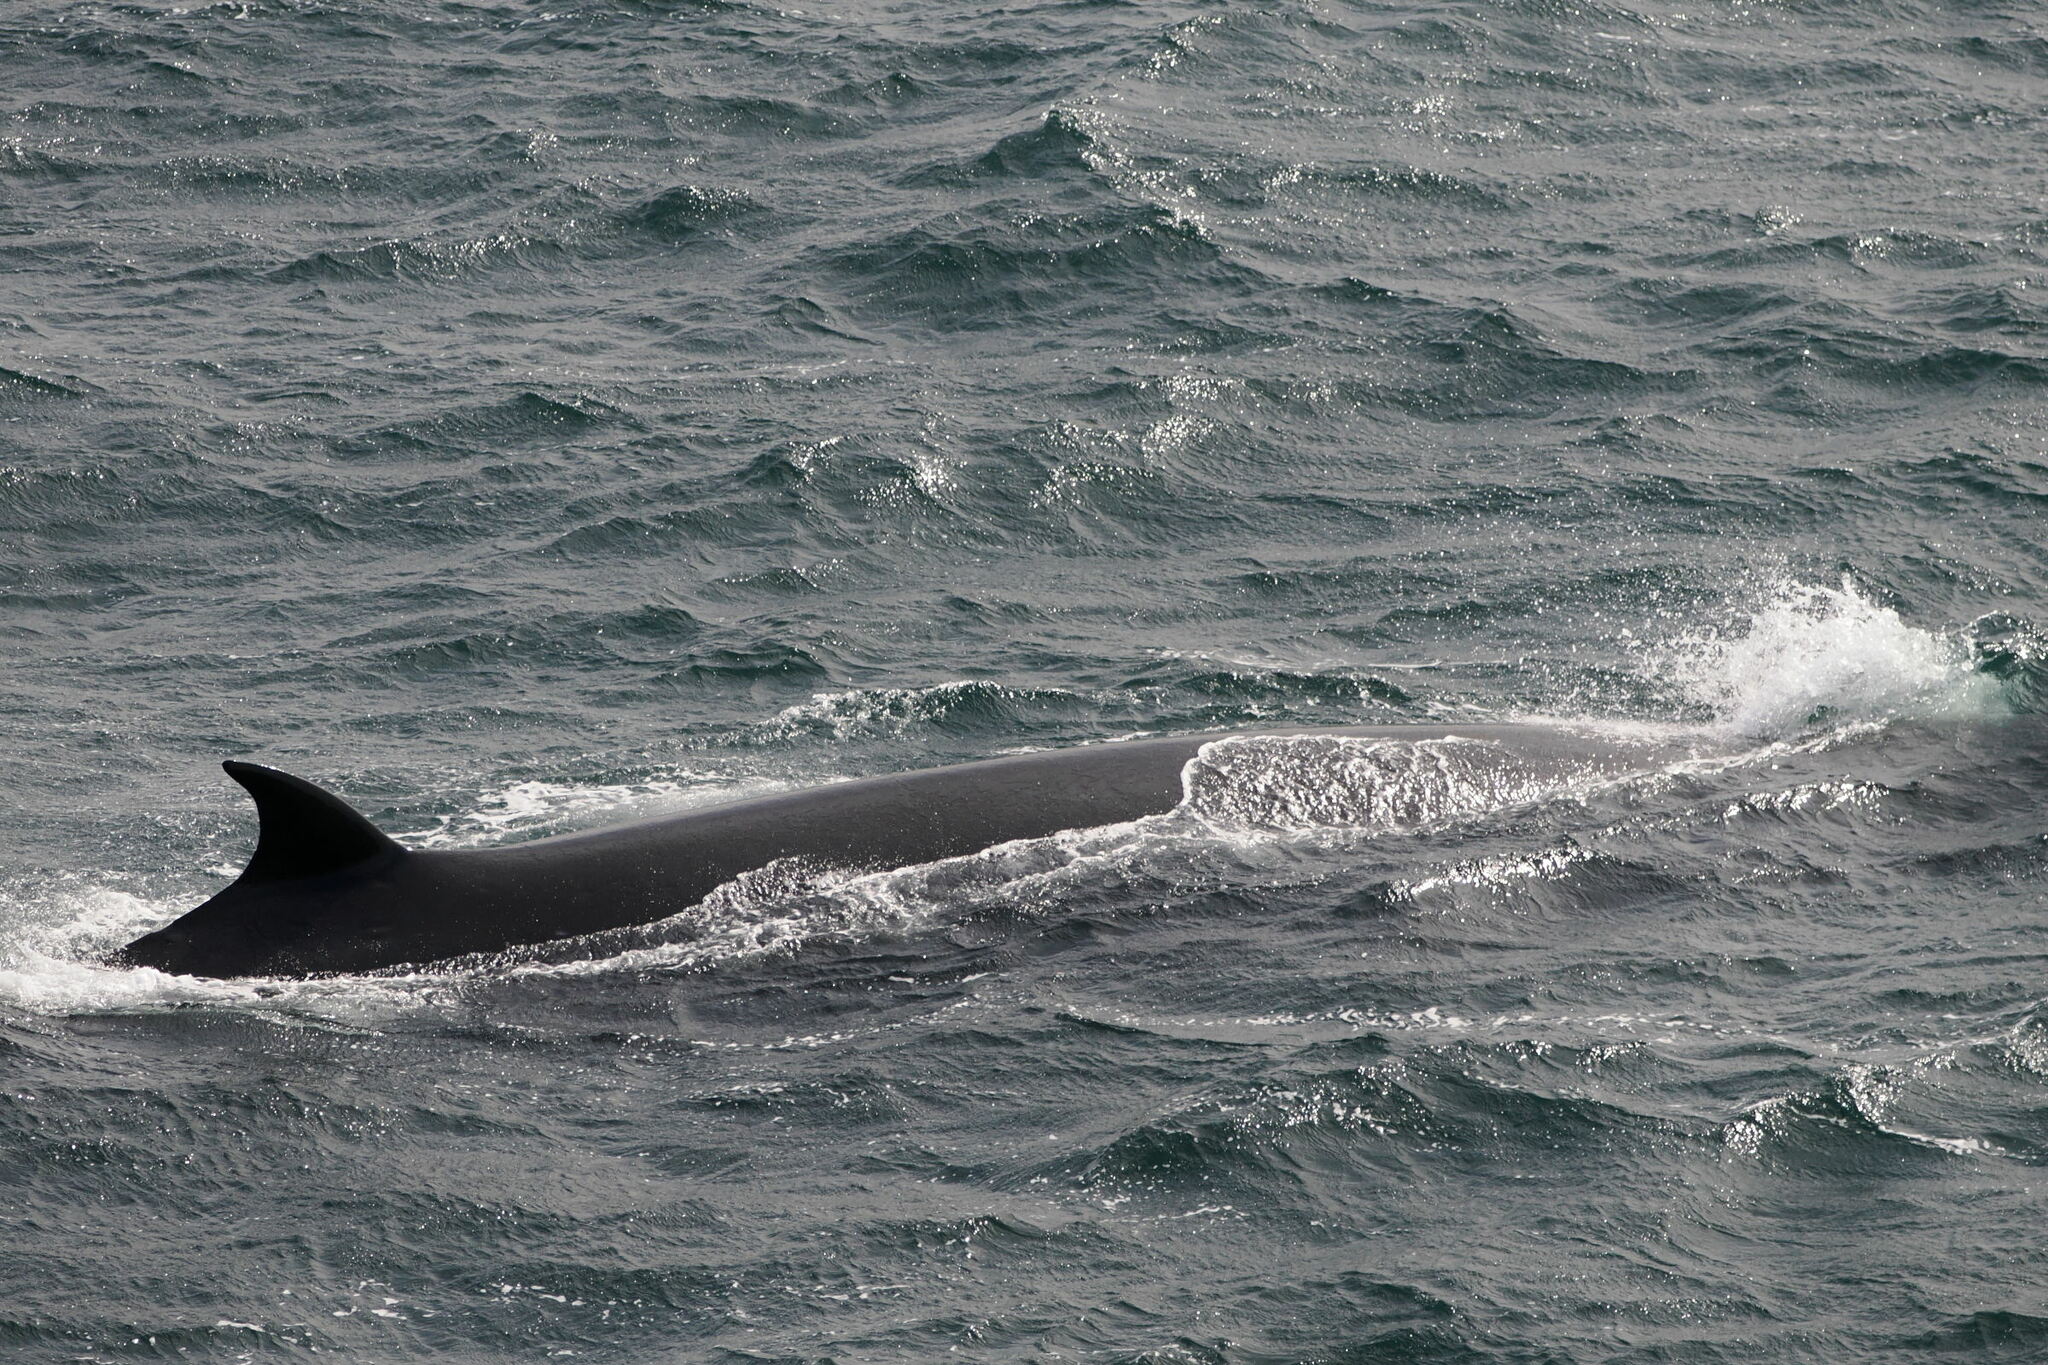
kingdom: Animalia
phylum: Chordata
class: Mammalia
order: Cetacea
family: Balaenopteridae
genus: Balaenoptera
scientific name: Balaenoptera borealis
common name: Sei whale
